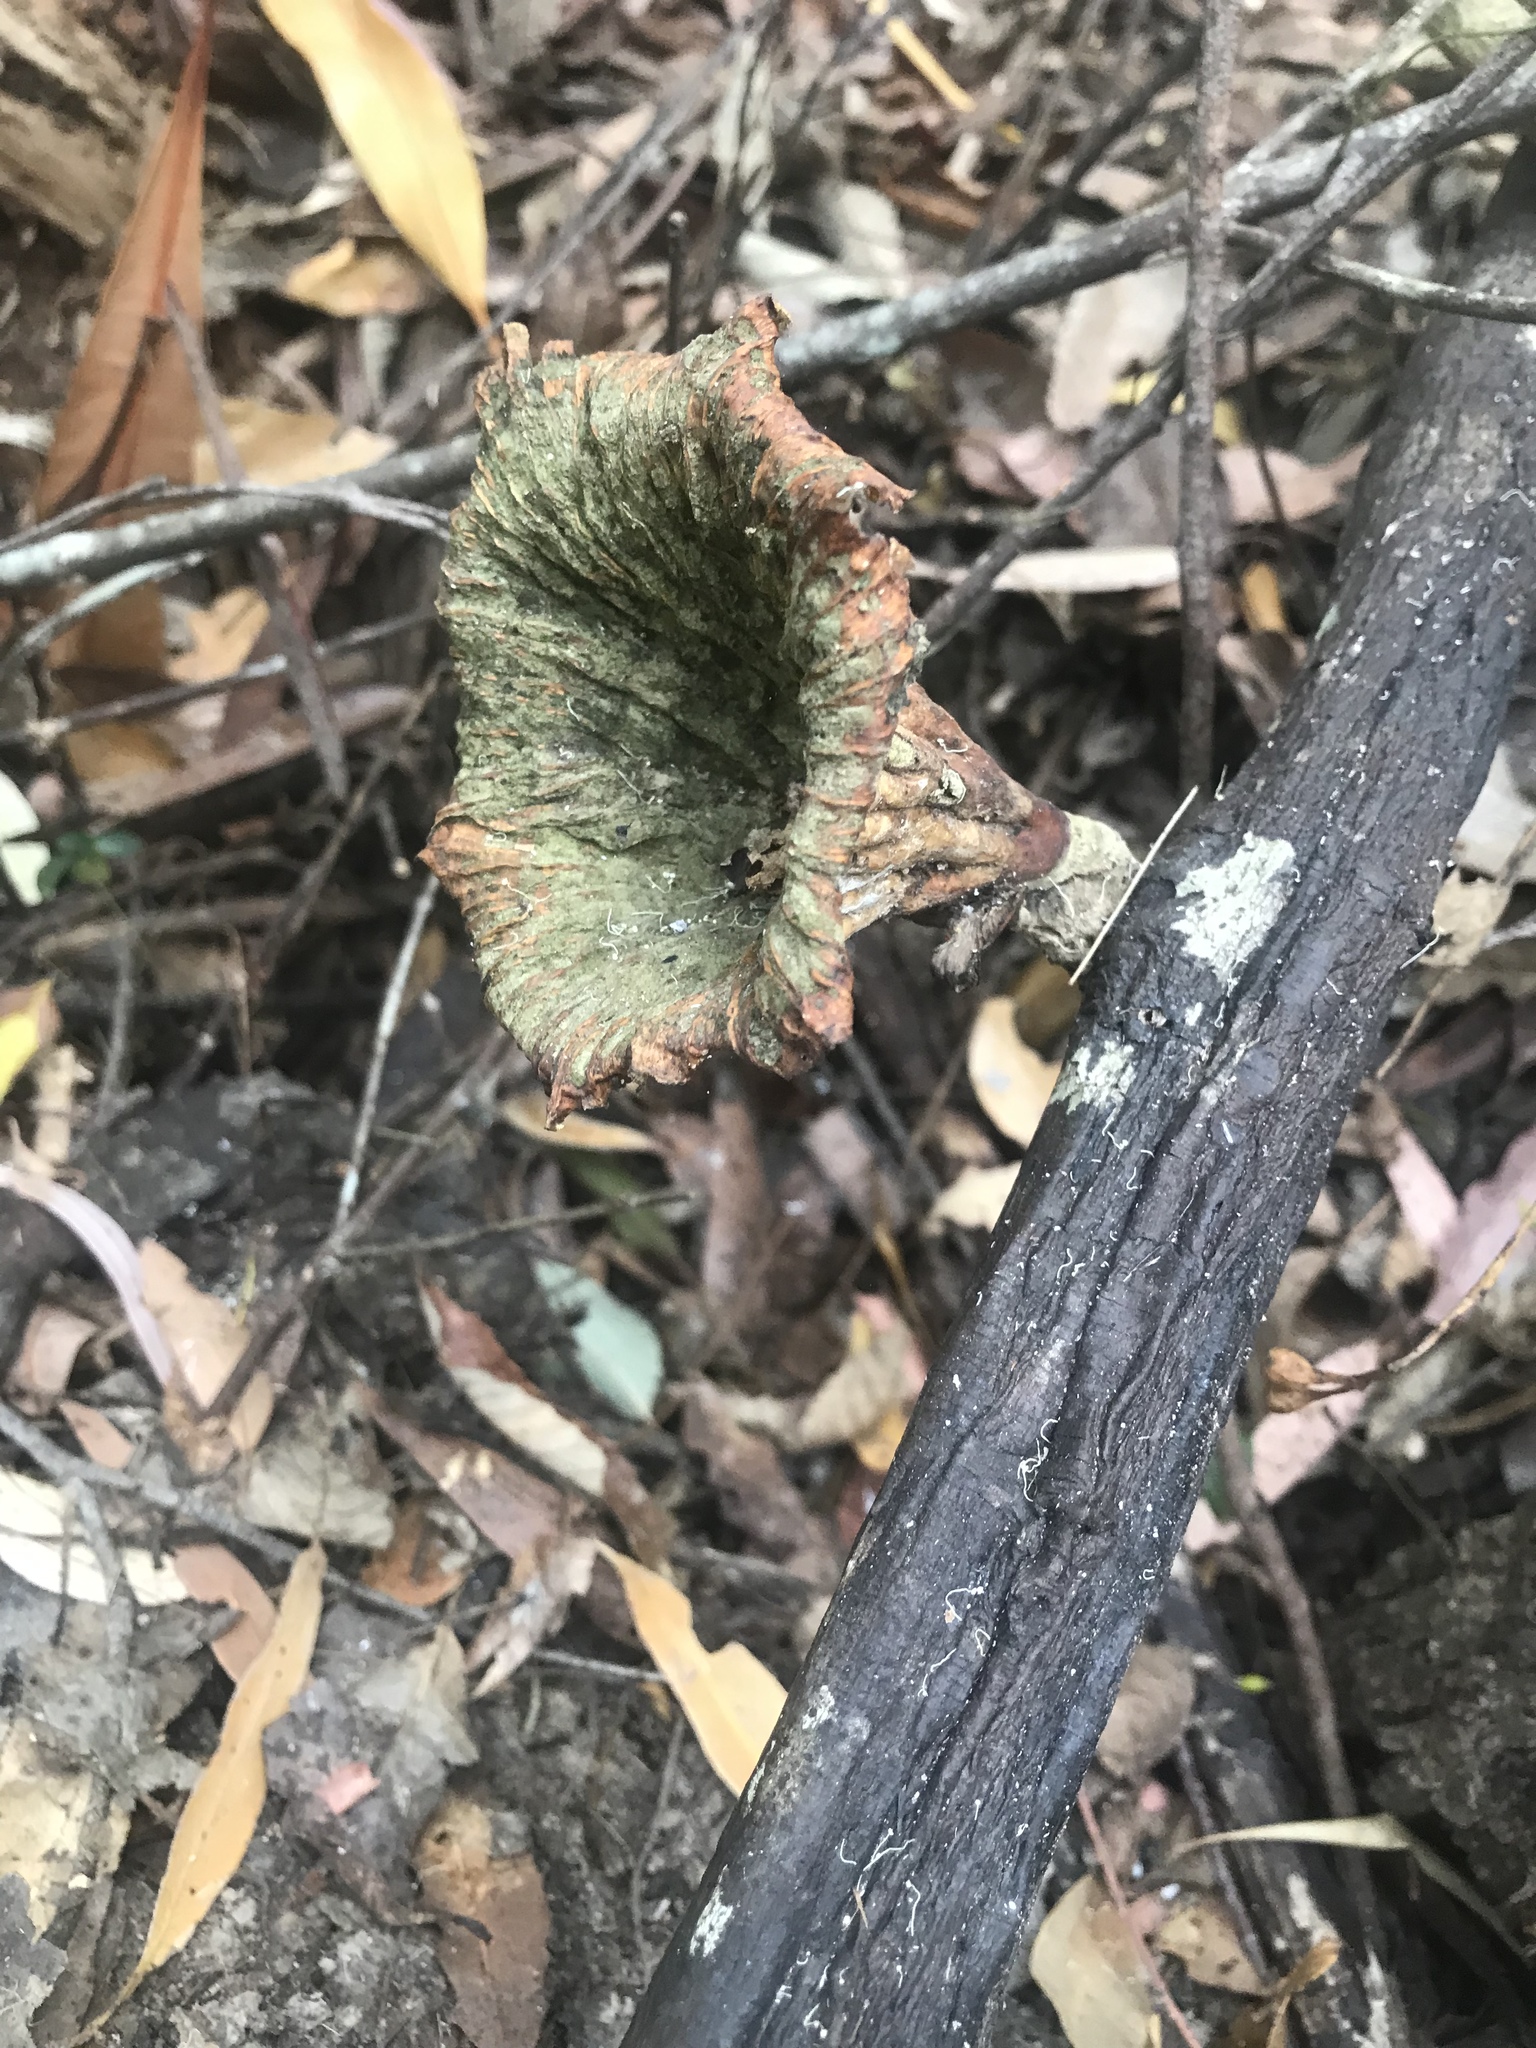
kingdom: Fungi
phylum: Basidiomycota
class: Agaricomycetes
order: Polyporales
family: Panaceae
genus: Cymatoderma
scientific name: Cymatoderma elegans
